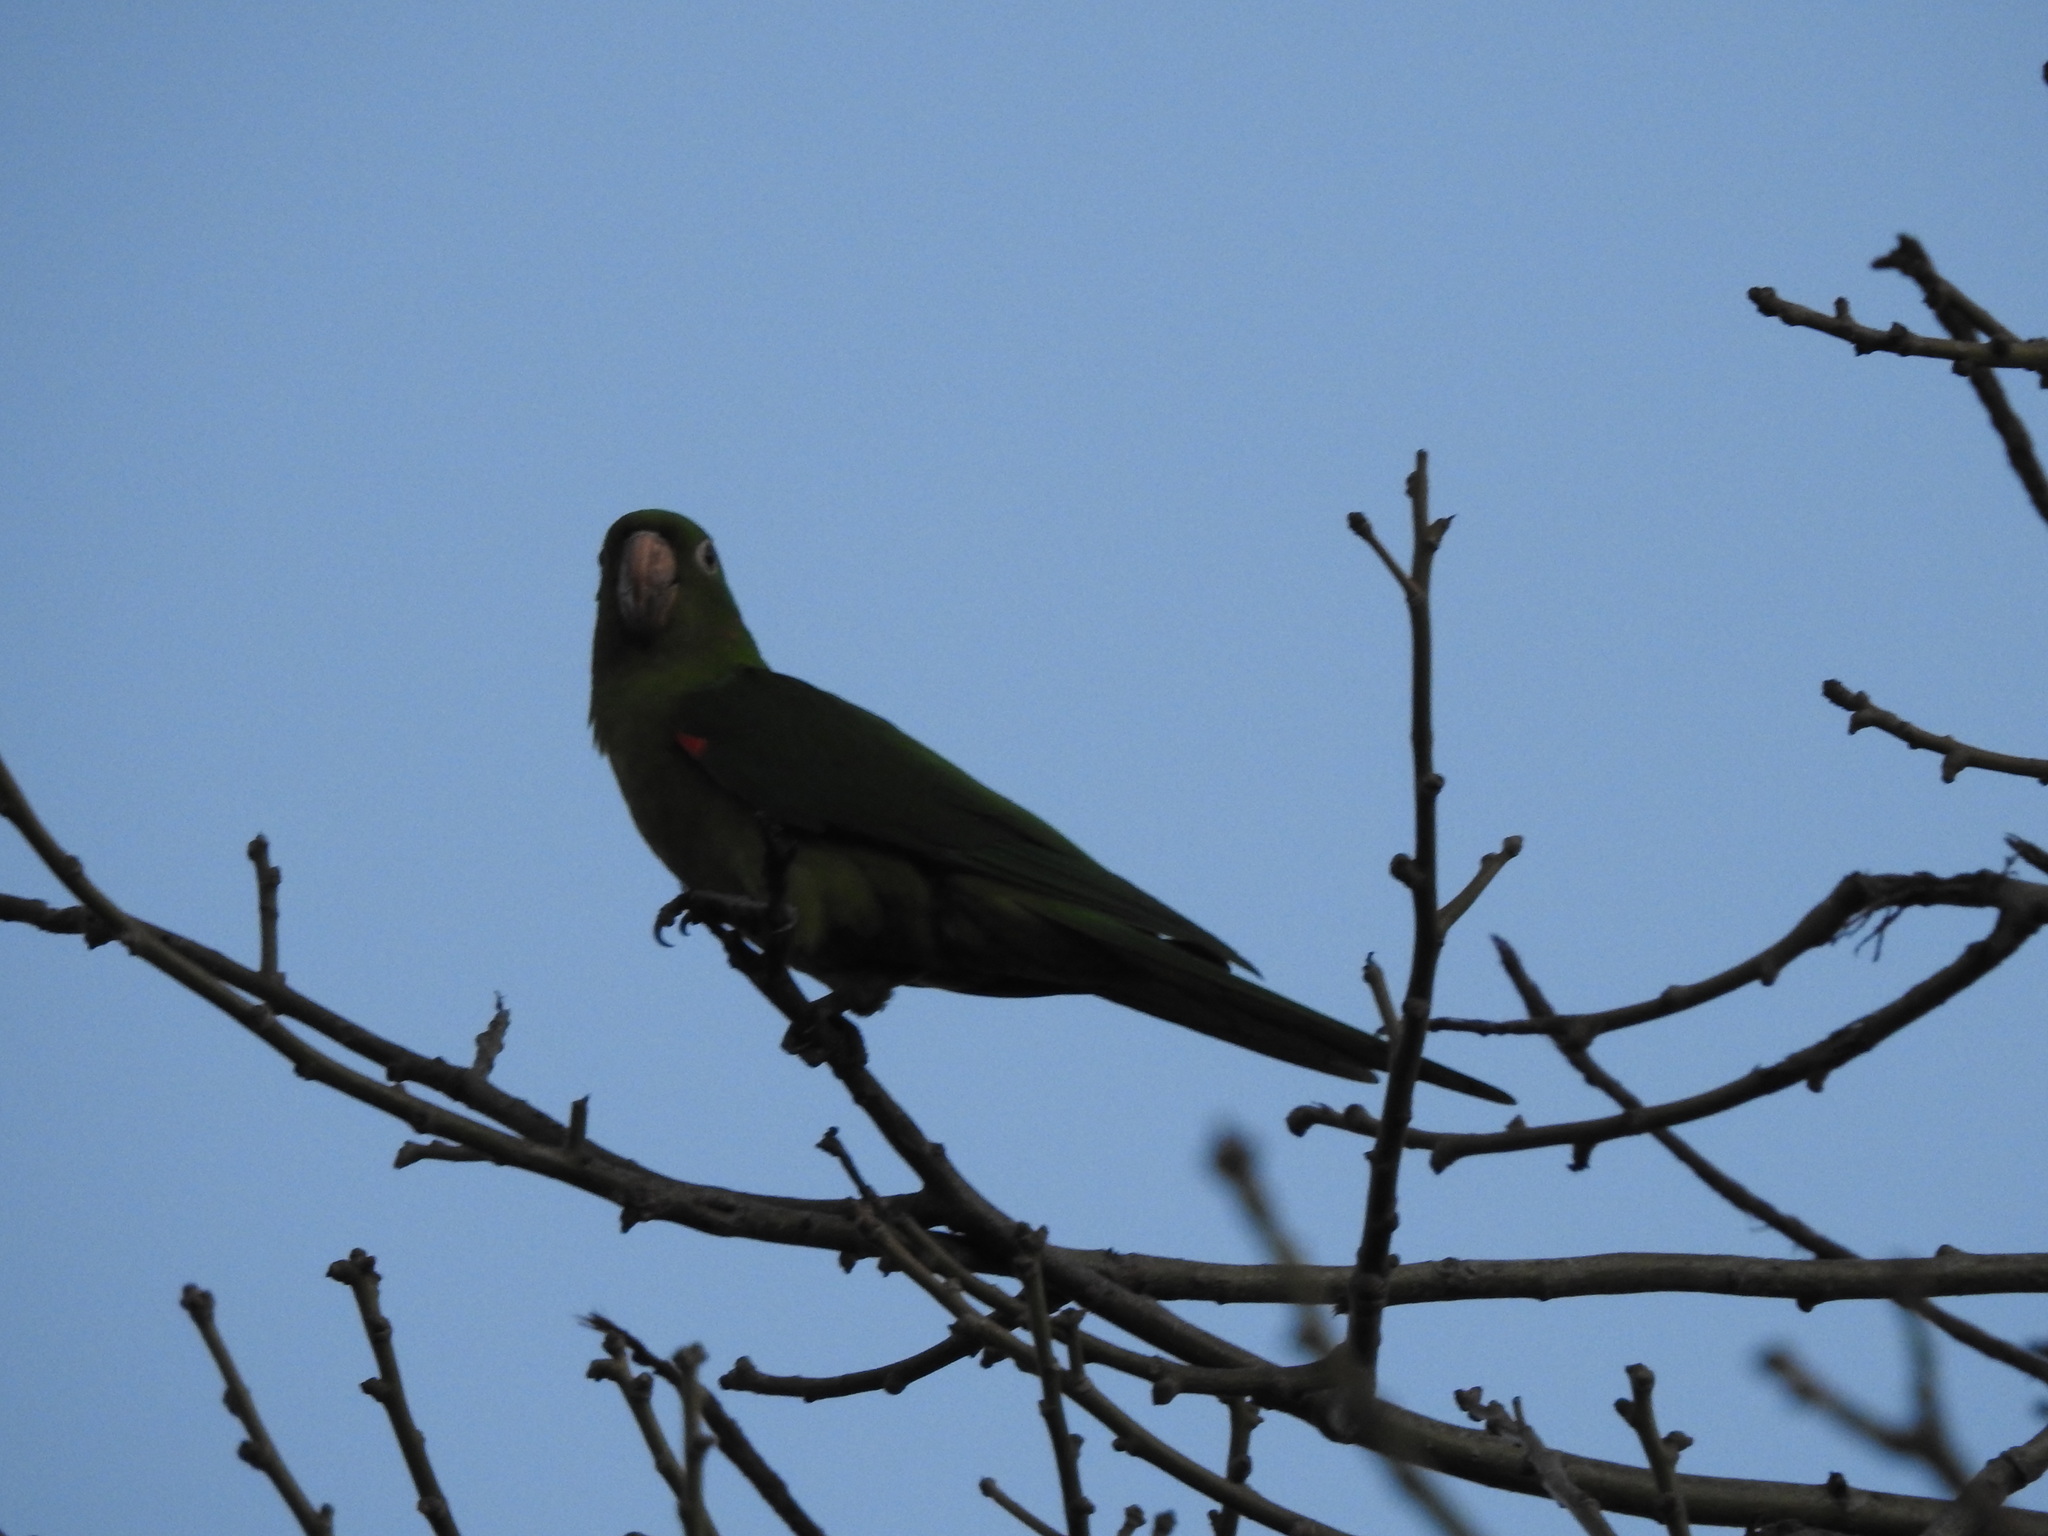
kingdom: Animalia
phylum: Chordata
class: Aves
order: Psittaciformes
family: Psittacidae
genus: Aratinga
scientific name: Aratinga leucophthalma
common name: White-eyed parakeet
